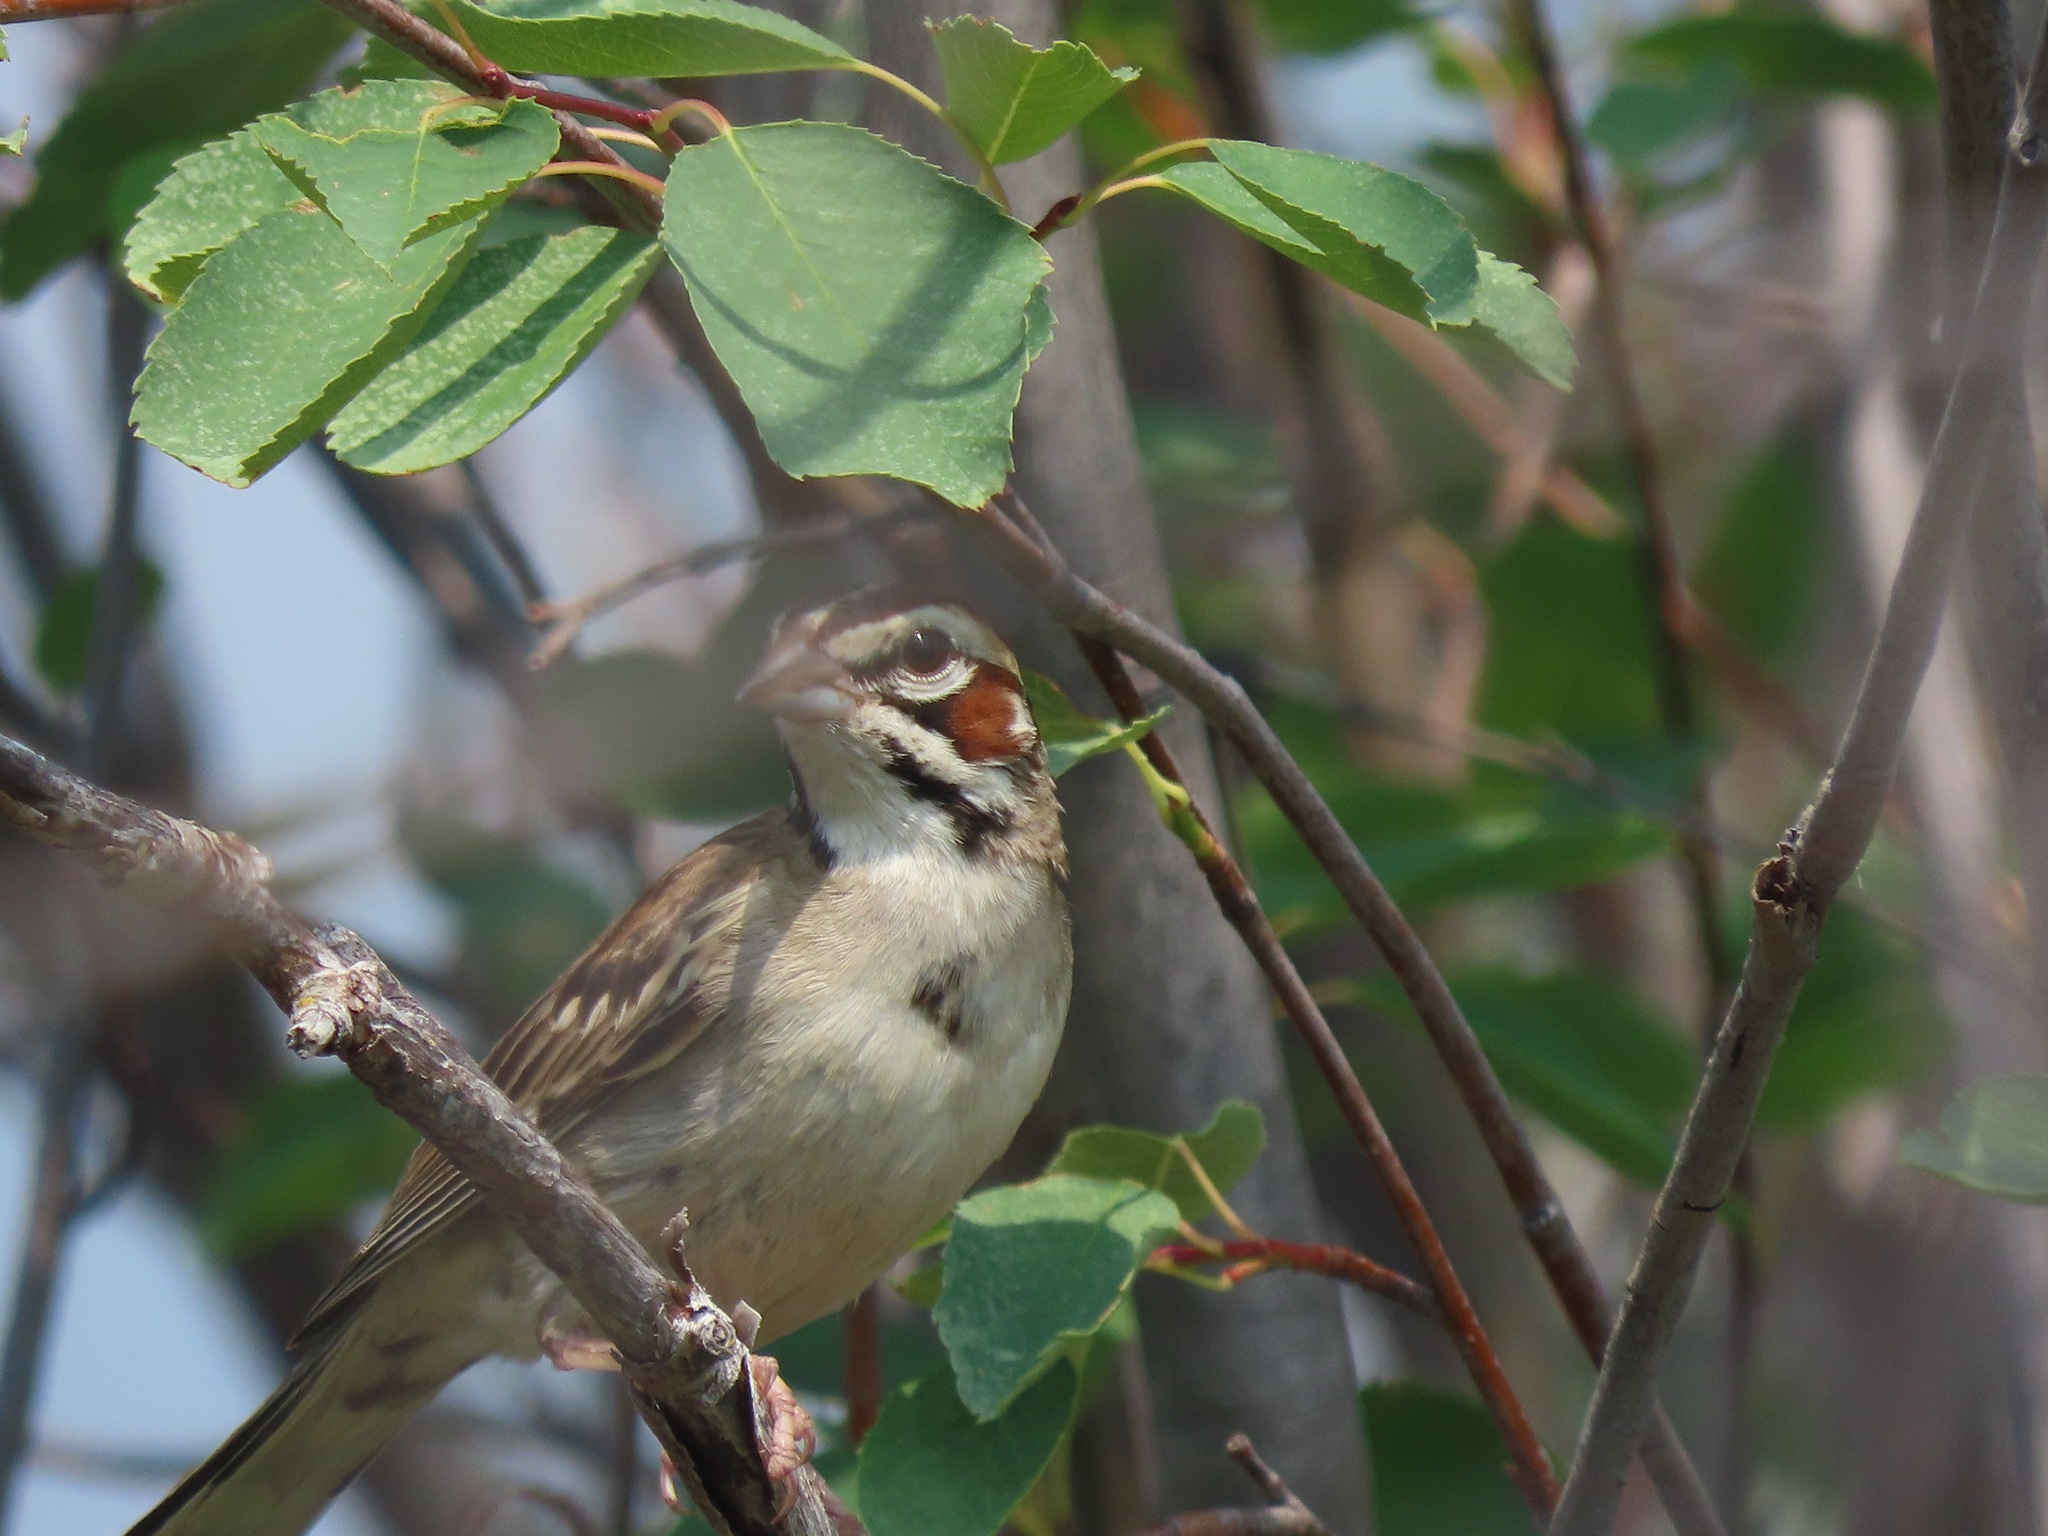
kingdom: Animalia
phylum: Chordata
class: Aves
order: Passeriformes
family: Passerellidae
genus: Chondestes
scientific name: Chondestes grammacus
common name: Lark sparrow
